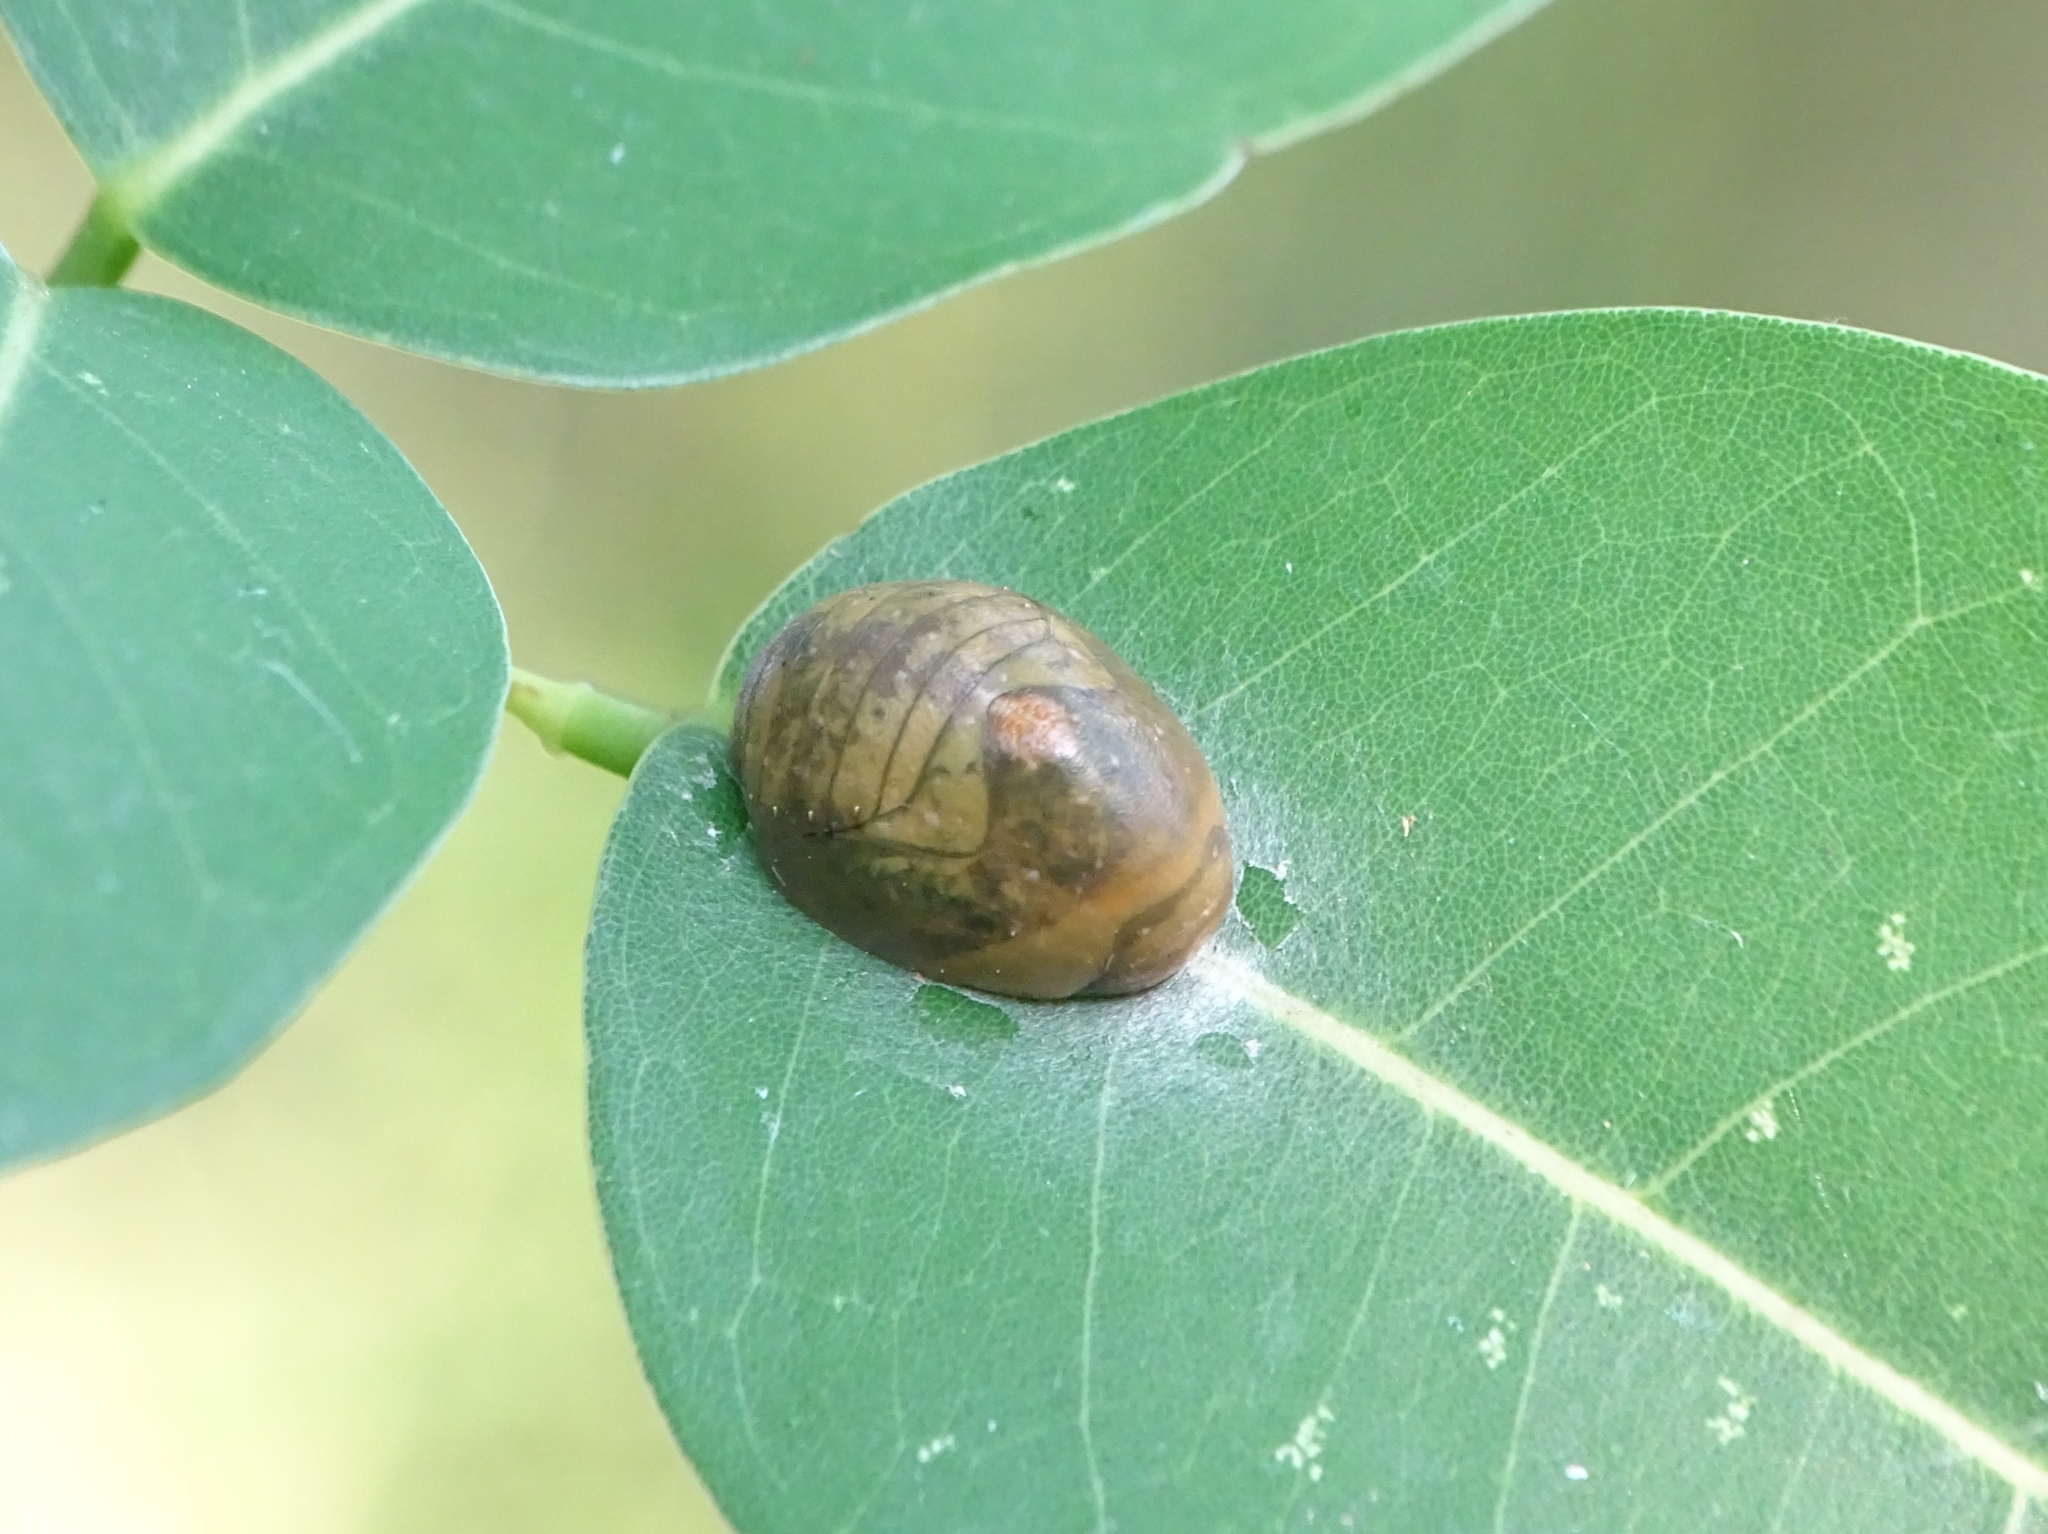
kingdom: Animalia
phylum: Arthropoda
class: Insecta
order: Lepidoptera
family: Lycaenidae
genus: Curetis
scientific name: Curetis thetis
